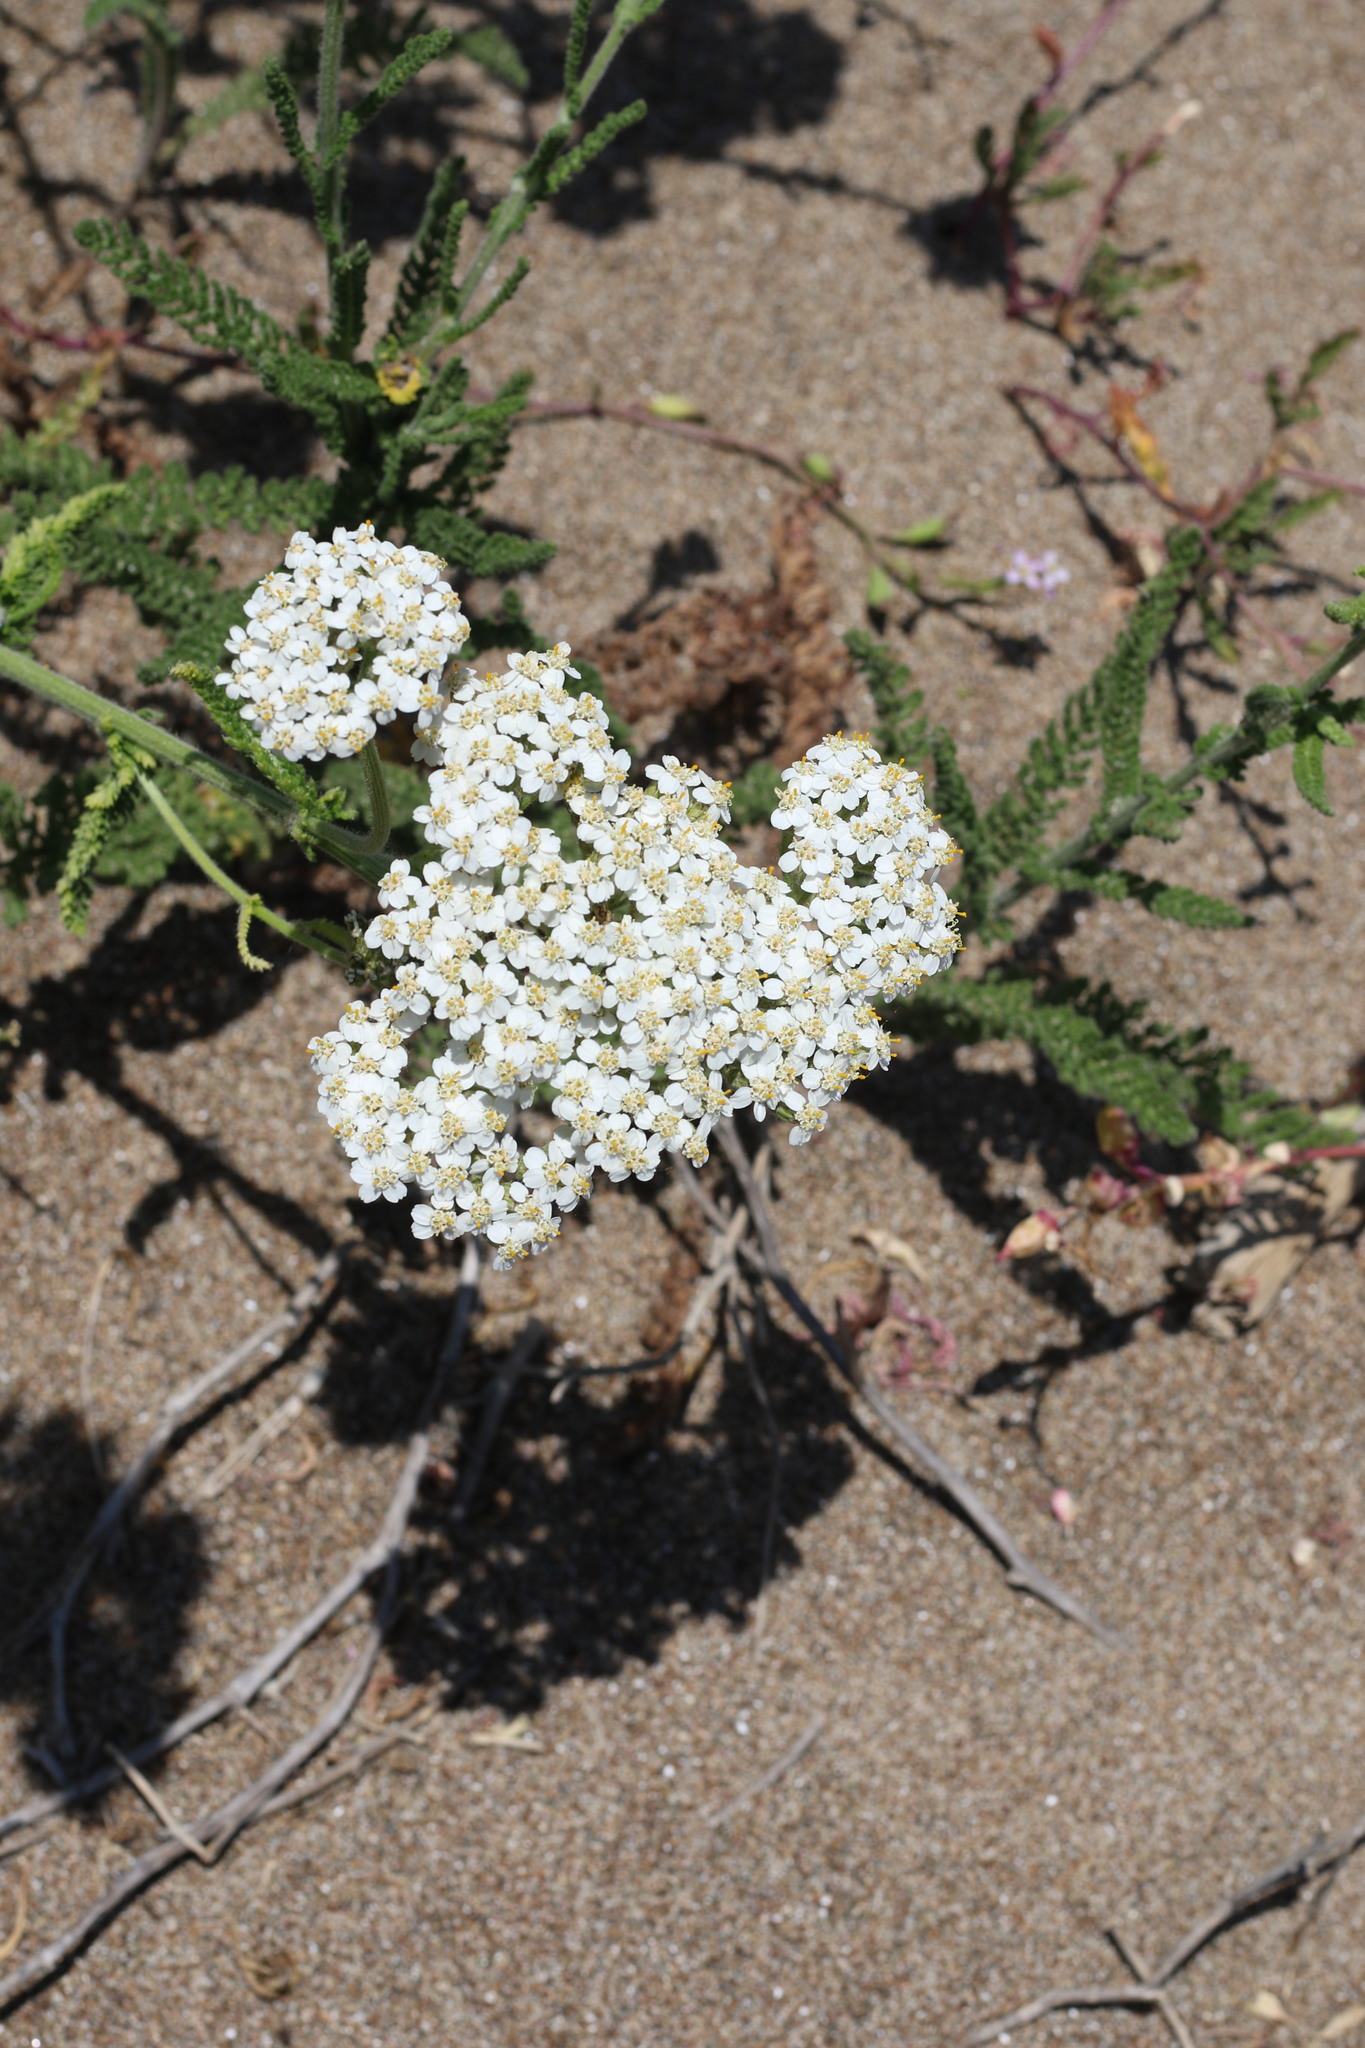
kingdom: Plantae
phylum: Tracheophyta
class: Magnoliopsida
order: Asterales
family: Asteraceae
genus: Achillea
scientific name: Achillea millefolium
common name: Yarrow
